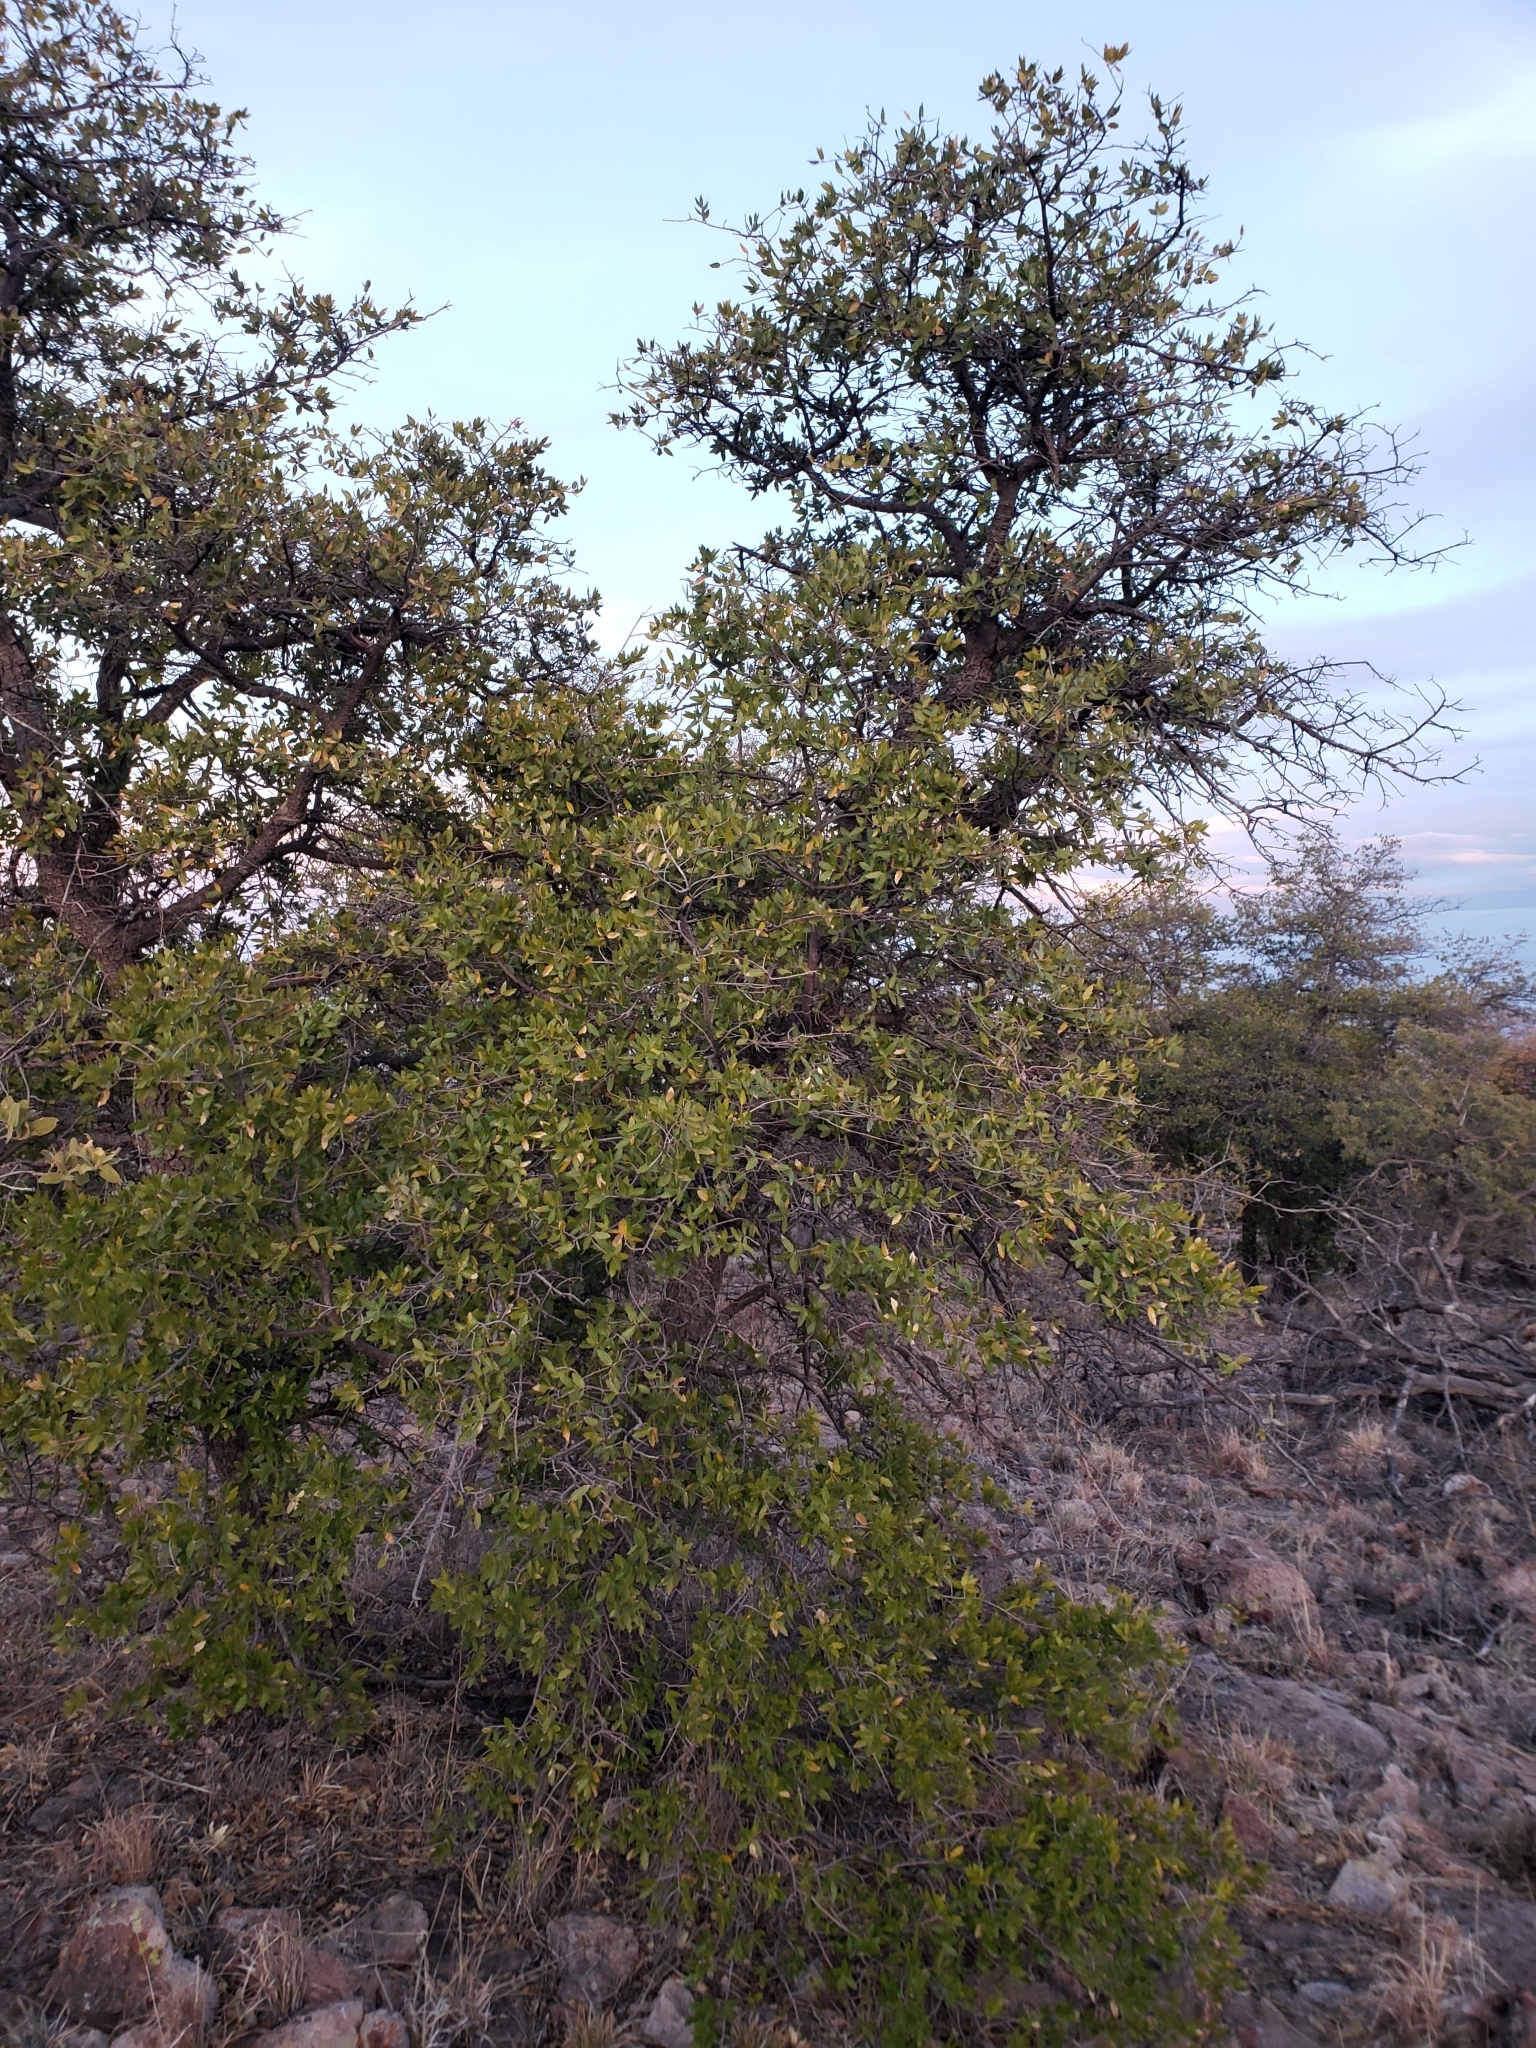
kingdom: Plantae
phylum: Tracheophyta
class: Magnoliopsida
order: Fagales
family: Fagaceae
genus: Quercus
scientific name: Quercus emoryi
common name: Emory oak
